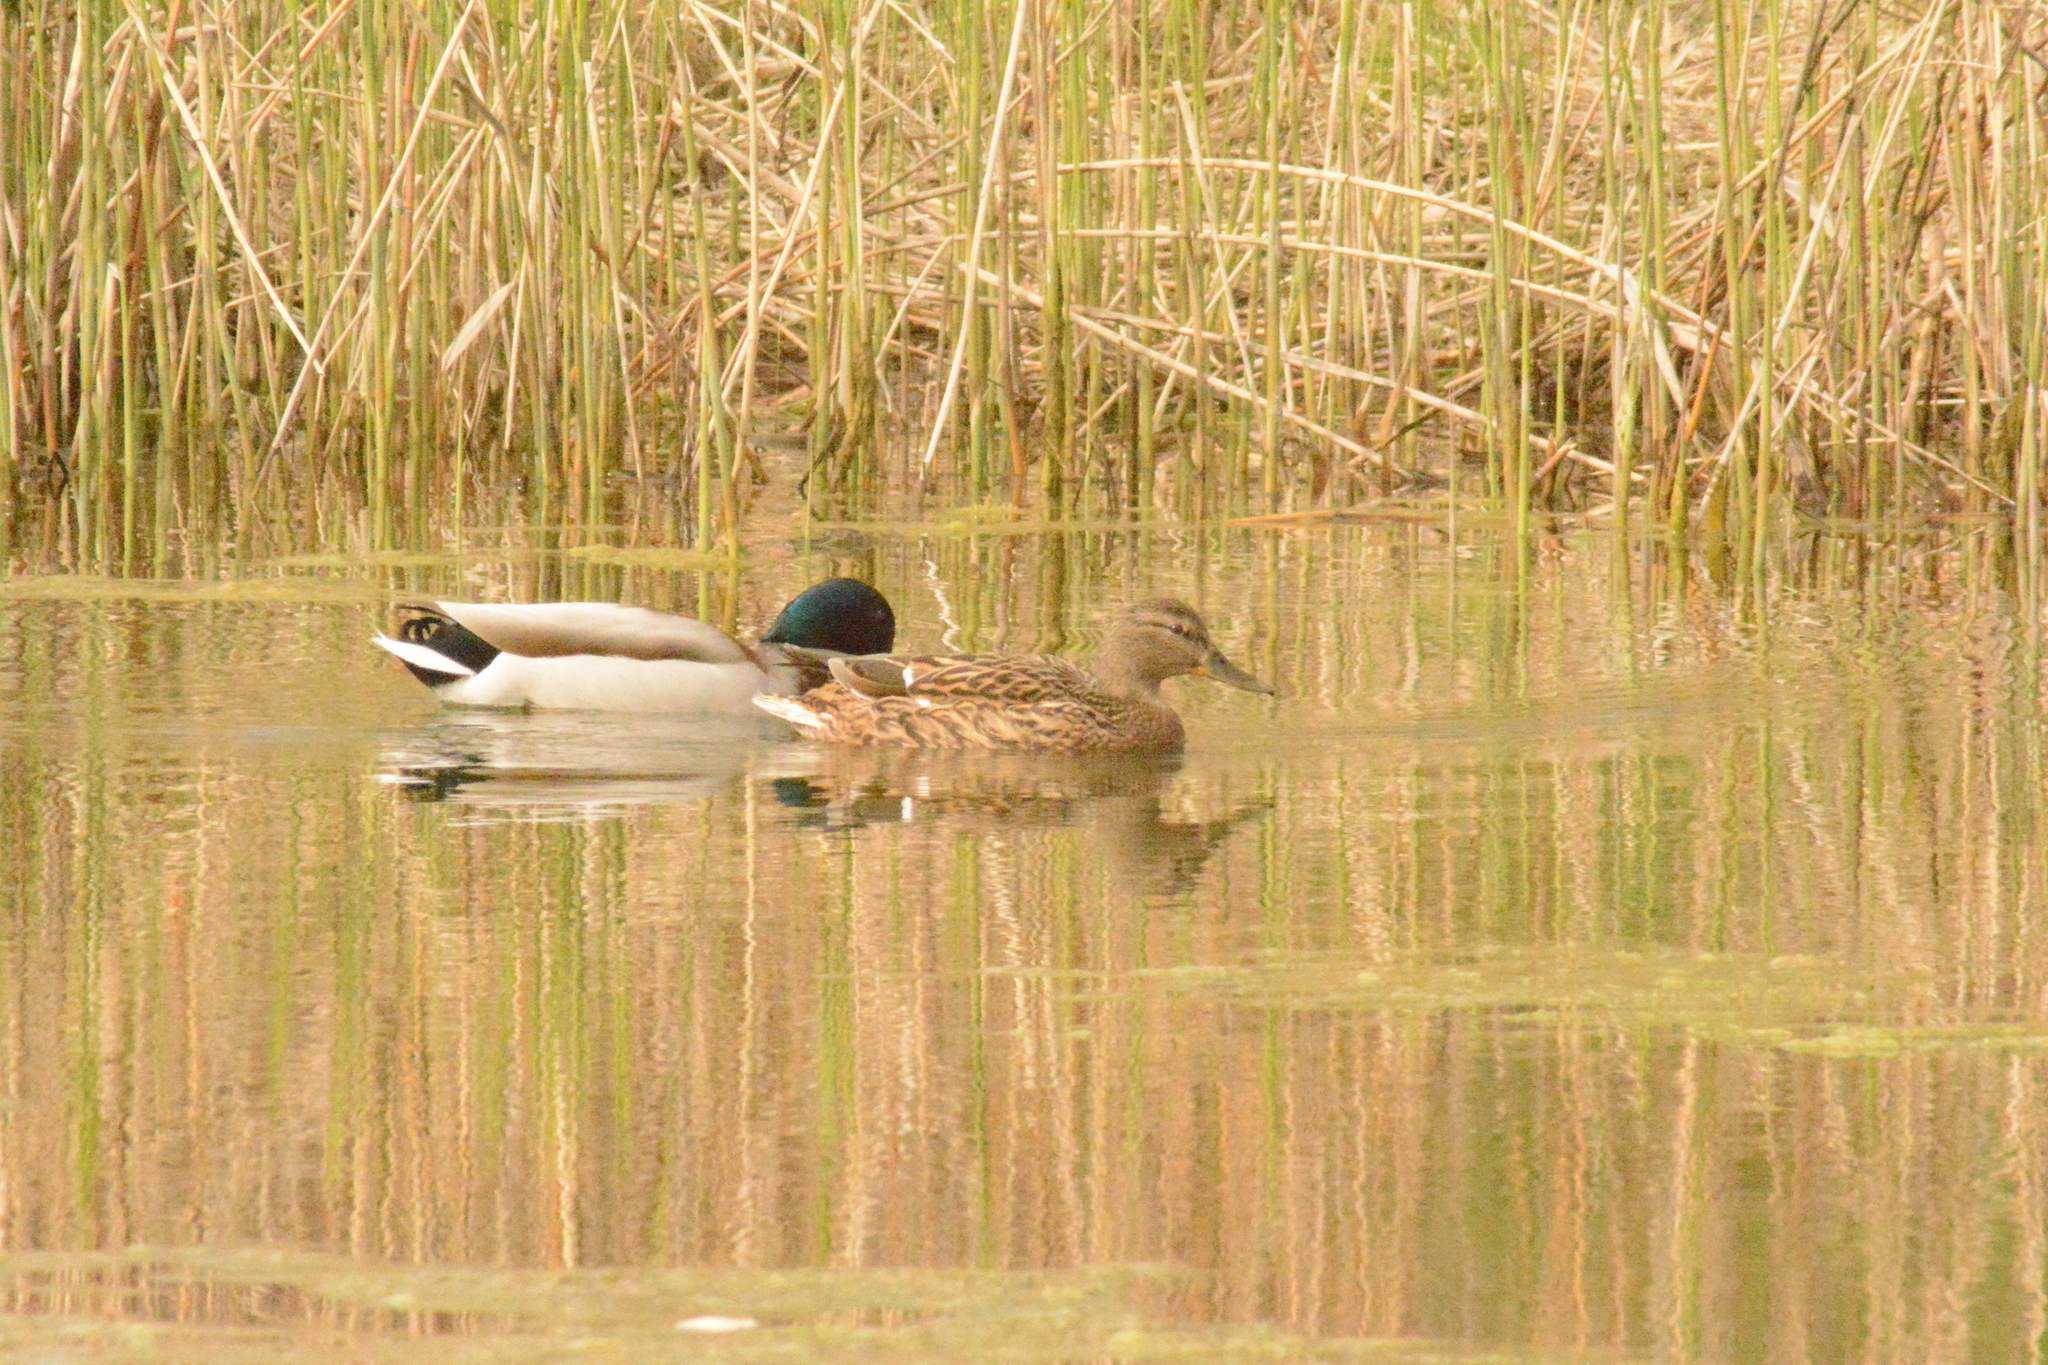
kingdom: Animalia
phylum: Chordata
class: Aves
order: Anseriformes
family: Anatidae
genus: Anas
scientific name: Anas platyrhynchos
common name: Mallard
